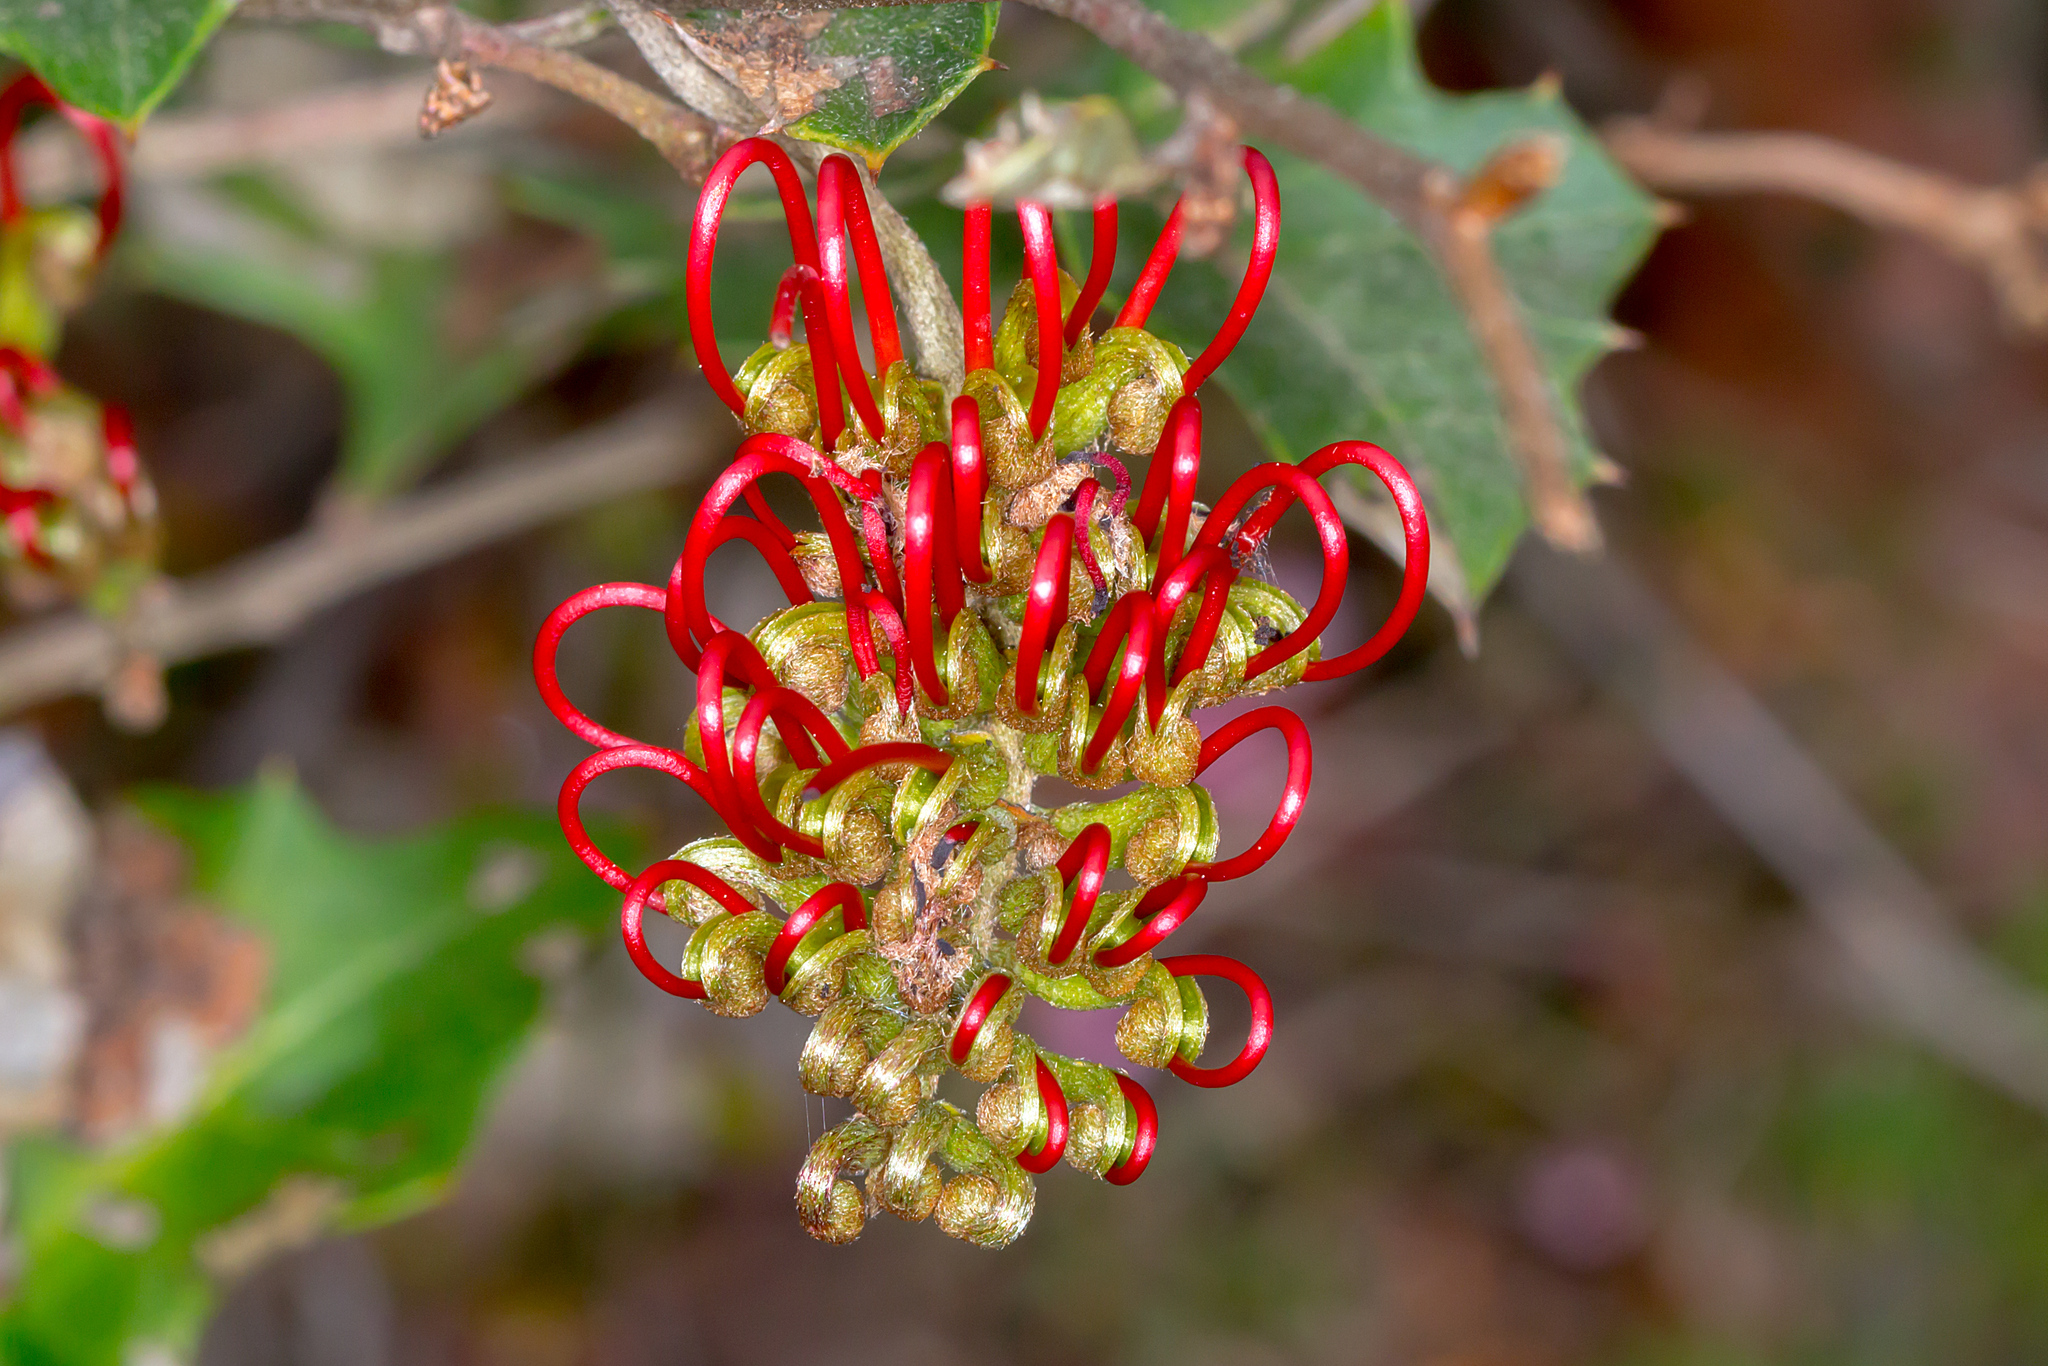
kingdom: Plantae
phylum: Tracheophyta
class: Magnoliopsida
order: Proteales
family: Proteaceae
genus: Grevillea
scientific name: Grevillea steiglitziana
